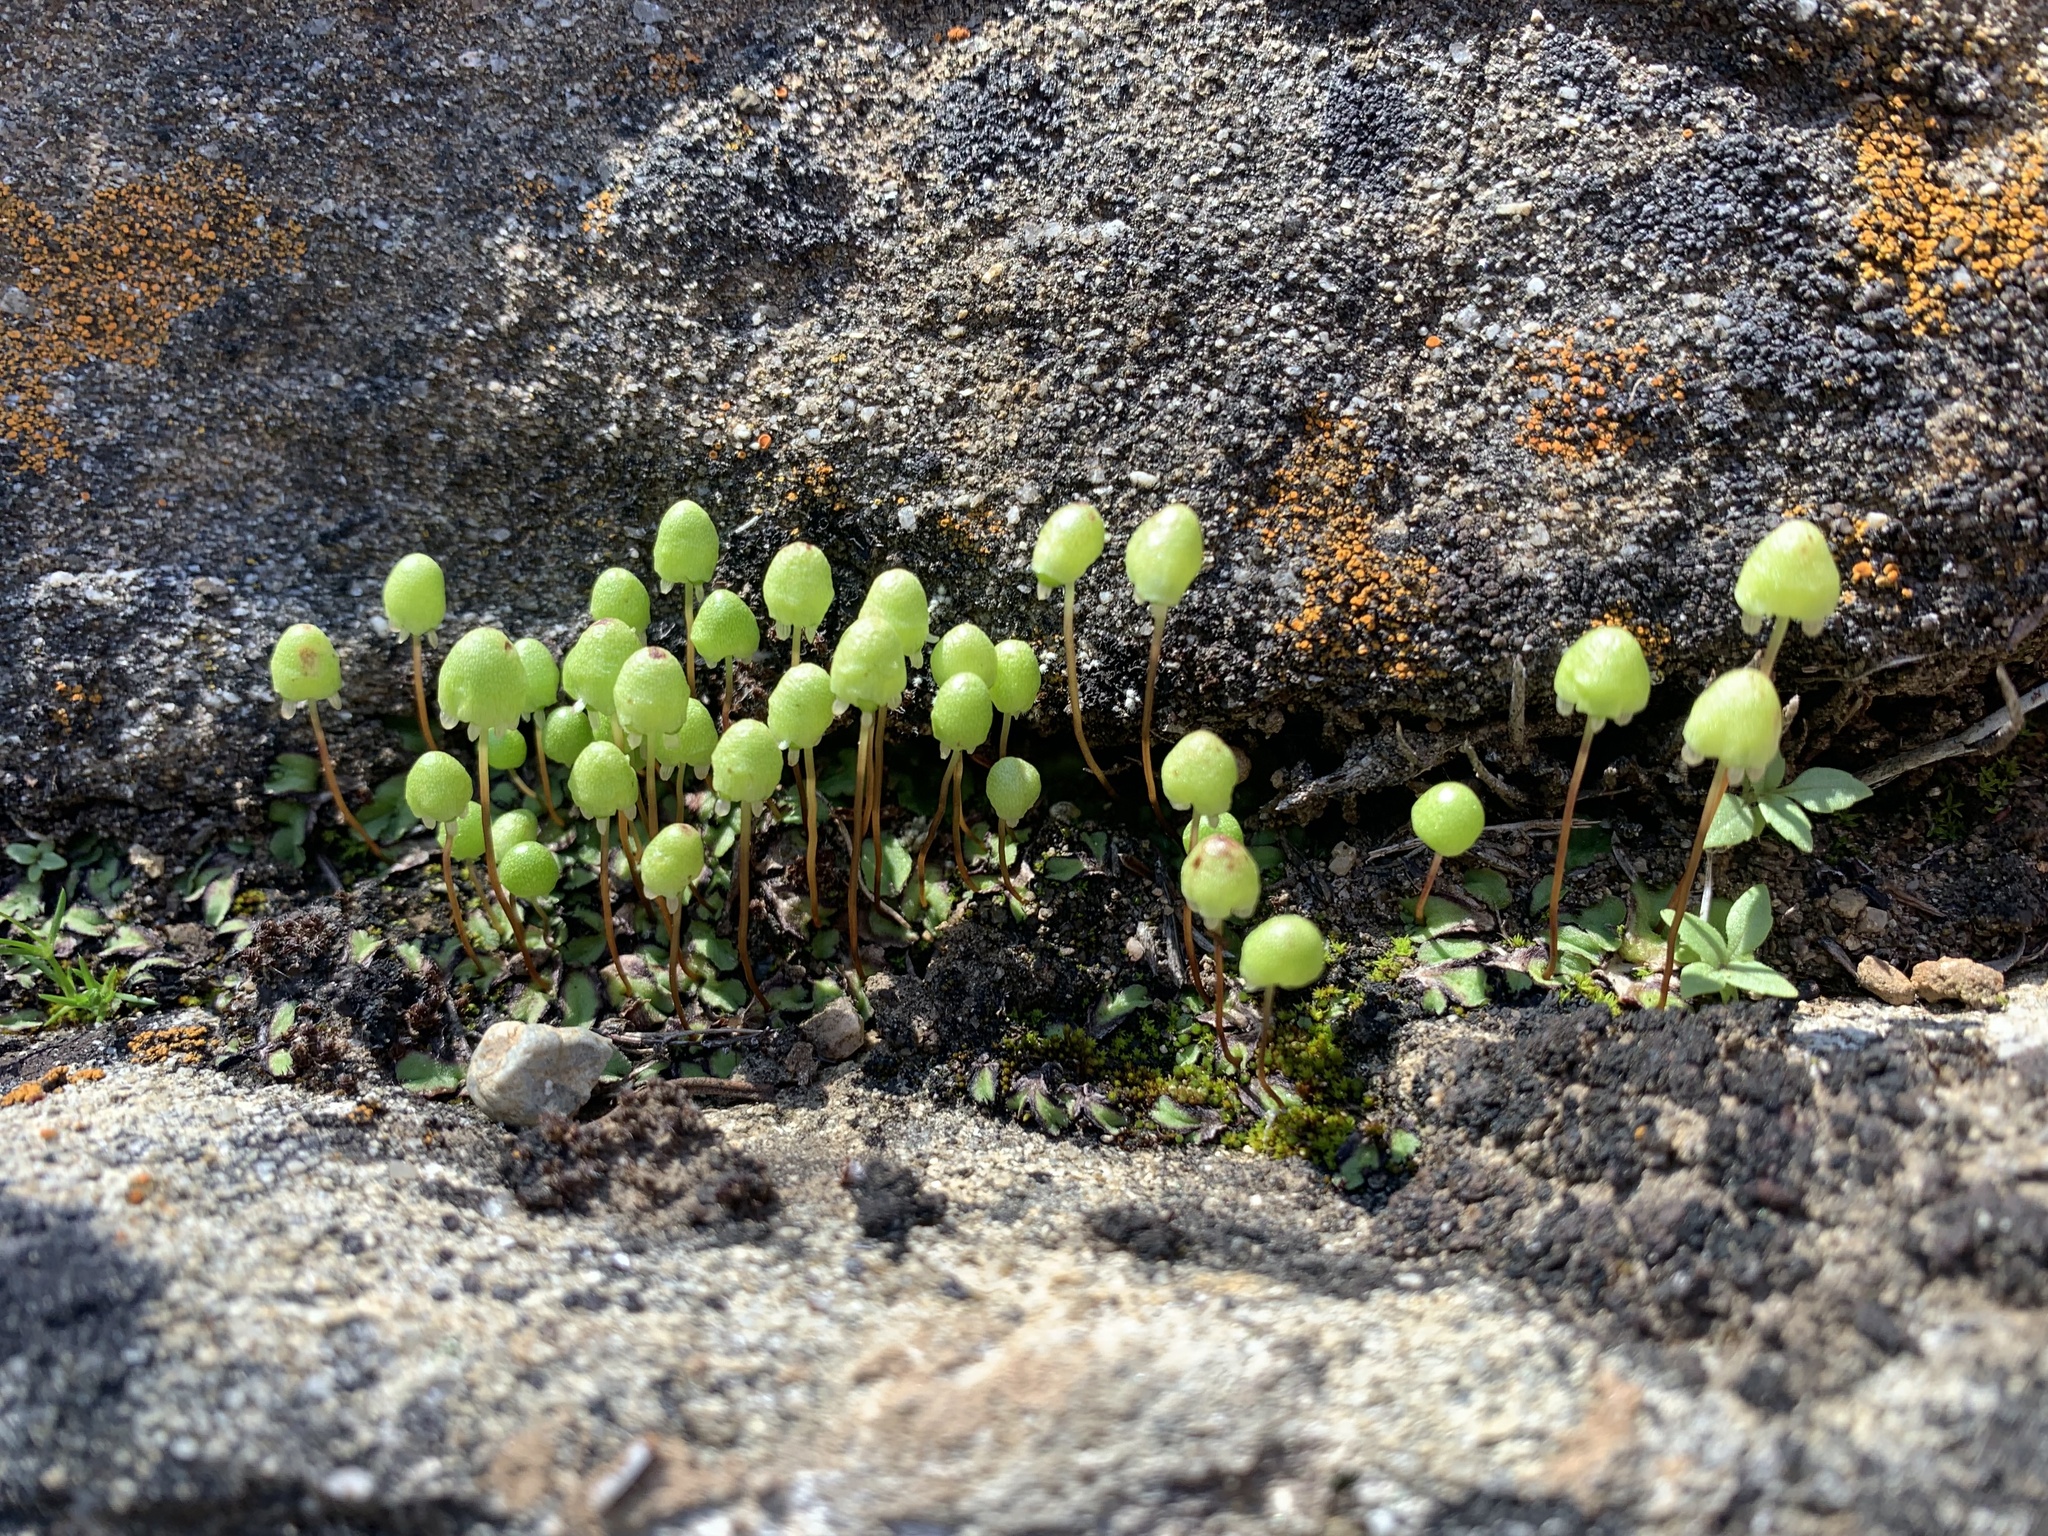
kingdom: Plantae
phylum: Marchantiophyta
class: Marchantiopsida
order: Marchantiales
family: Aytoniaceae
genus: Asterella
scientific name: Asterella palmeri
